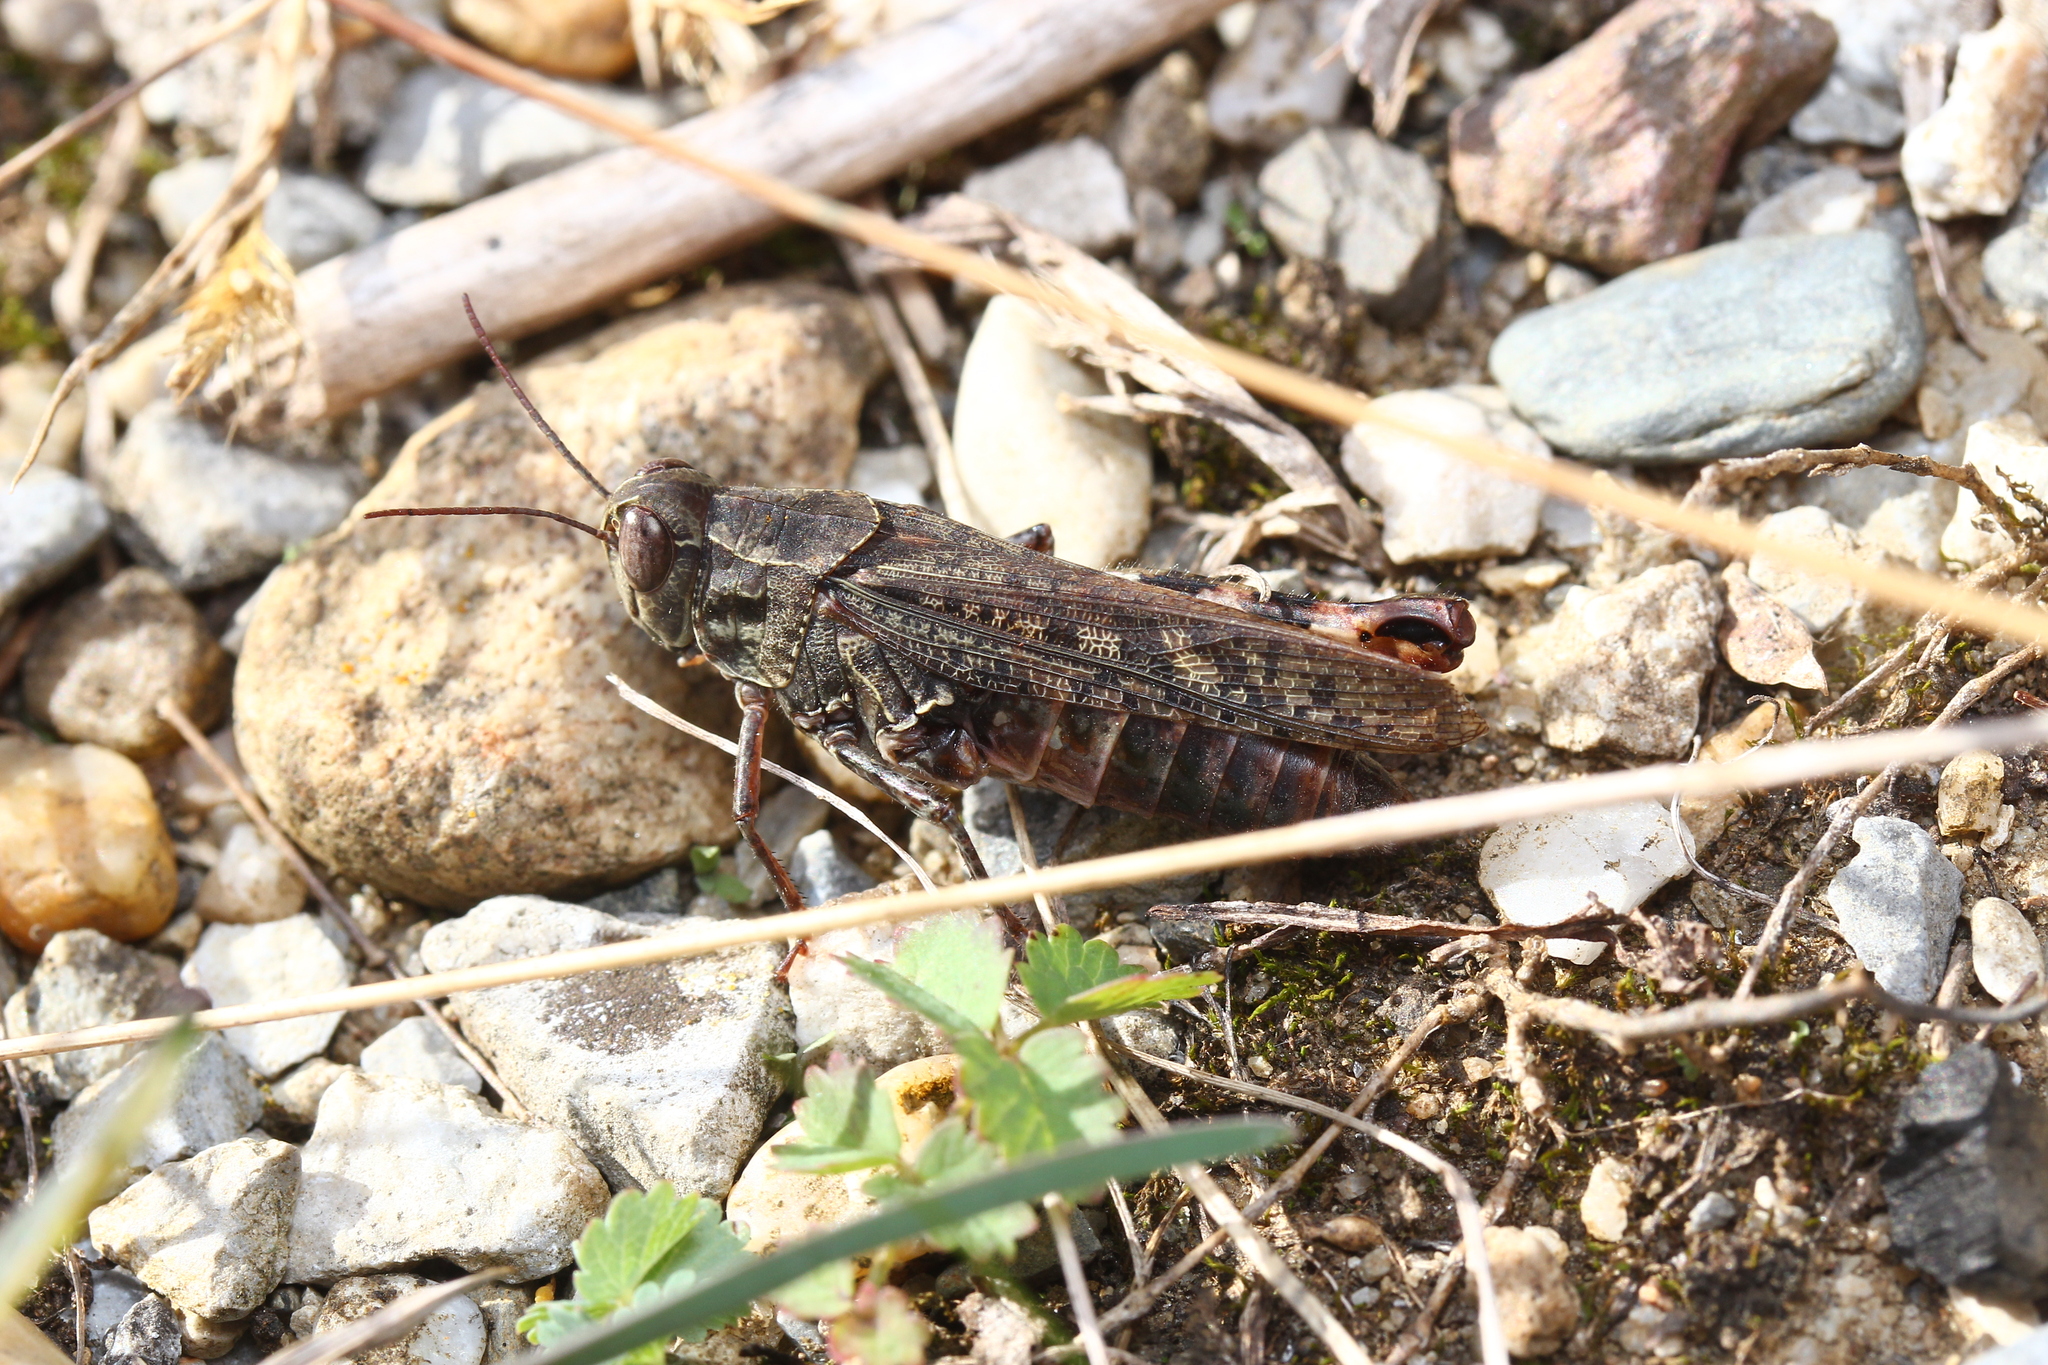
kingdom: Animalia
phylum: Arthropoda
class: Insecta
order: Orthoptera
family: Acrididae
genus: Calliptamus
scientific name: Calliptamus italicus
